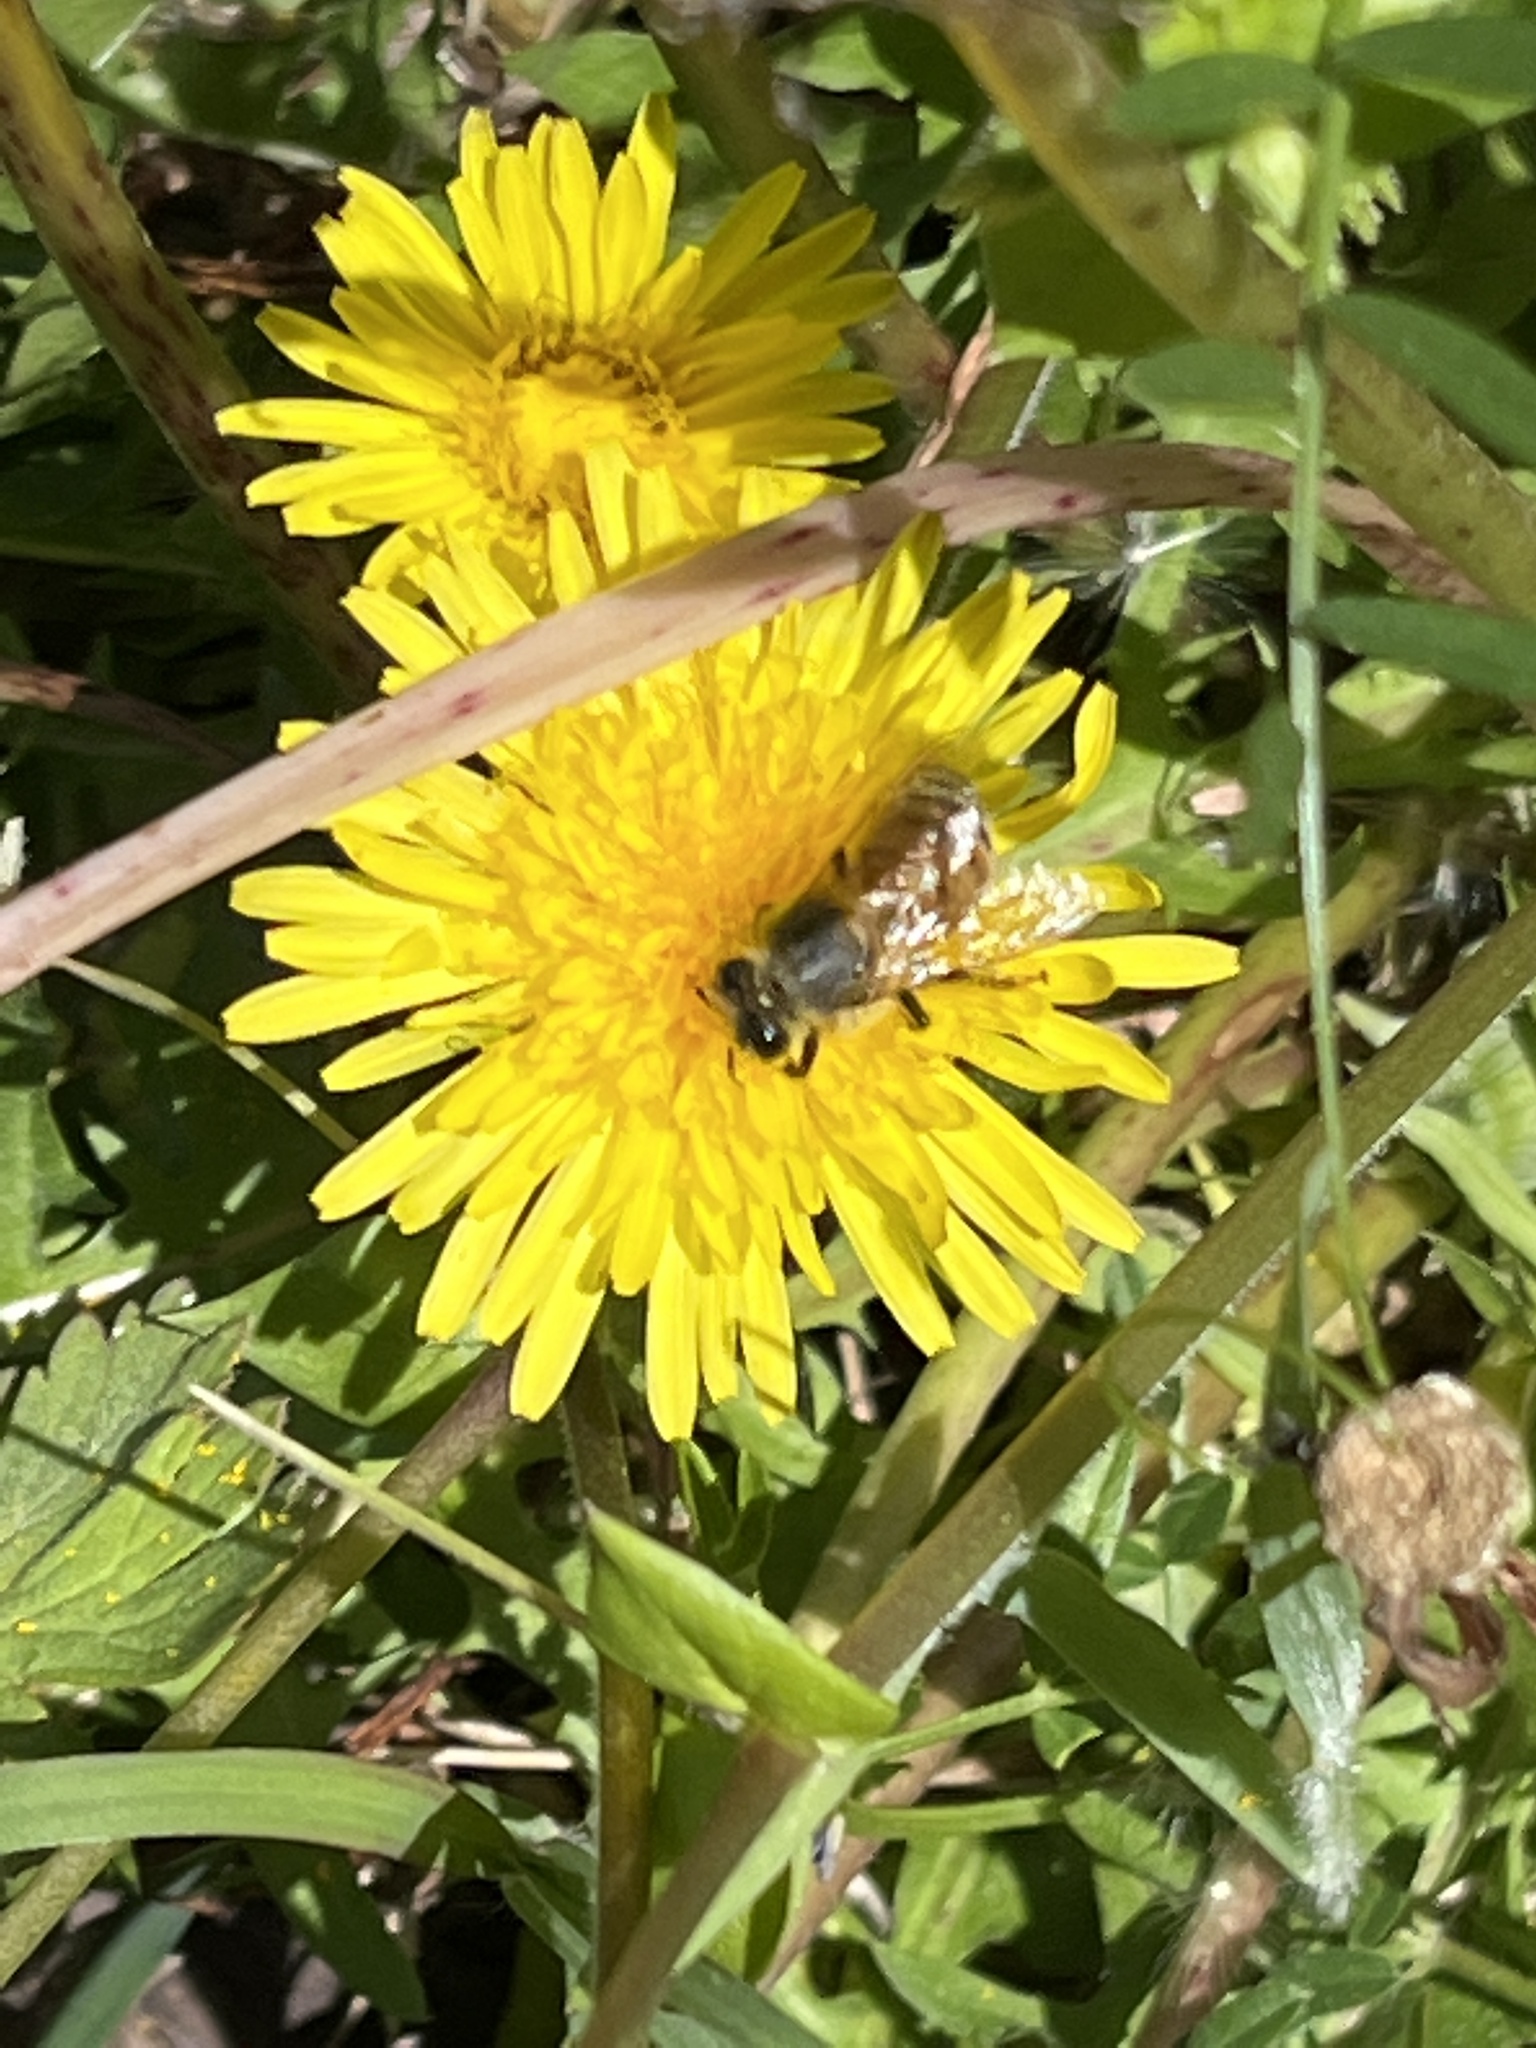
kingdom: Animalia
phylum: Arthropoda
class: Insecta
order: Hymenoptera
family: Apidae
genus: Apis
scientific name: Apis mellifera
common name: Honey bee
